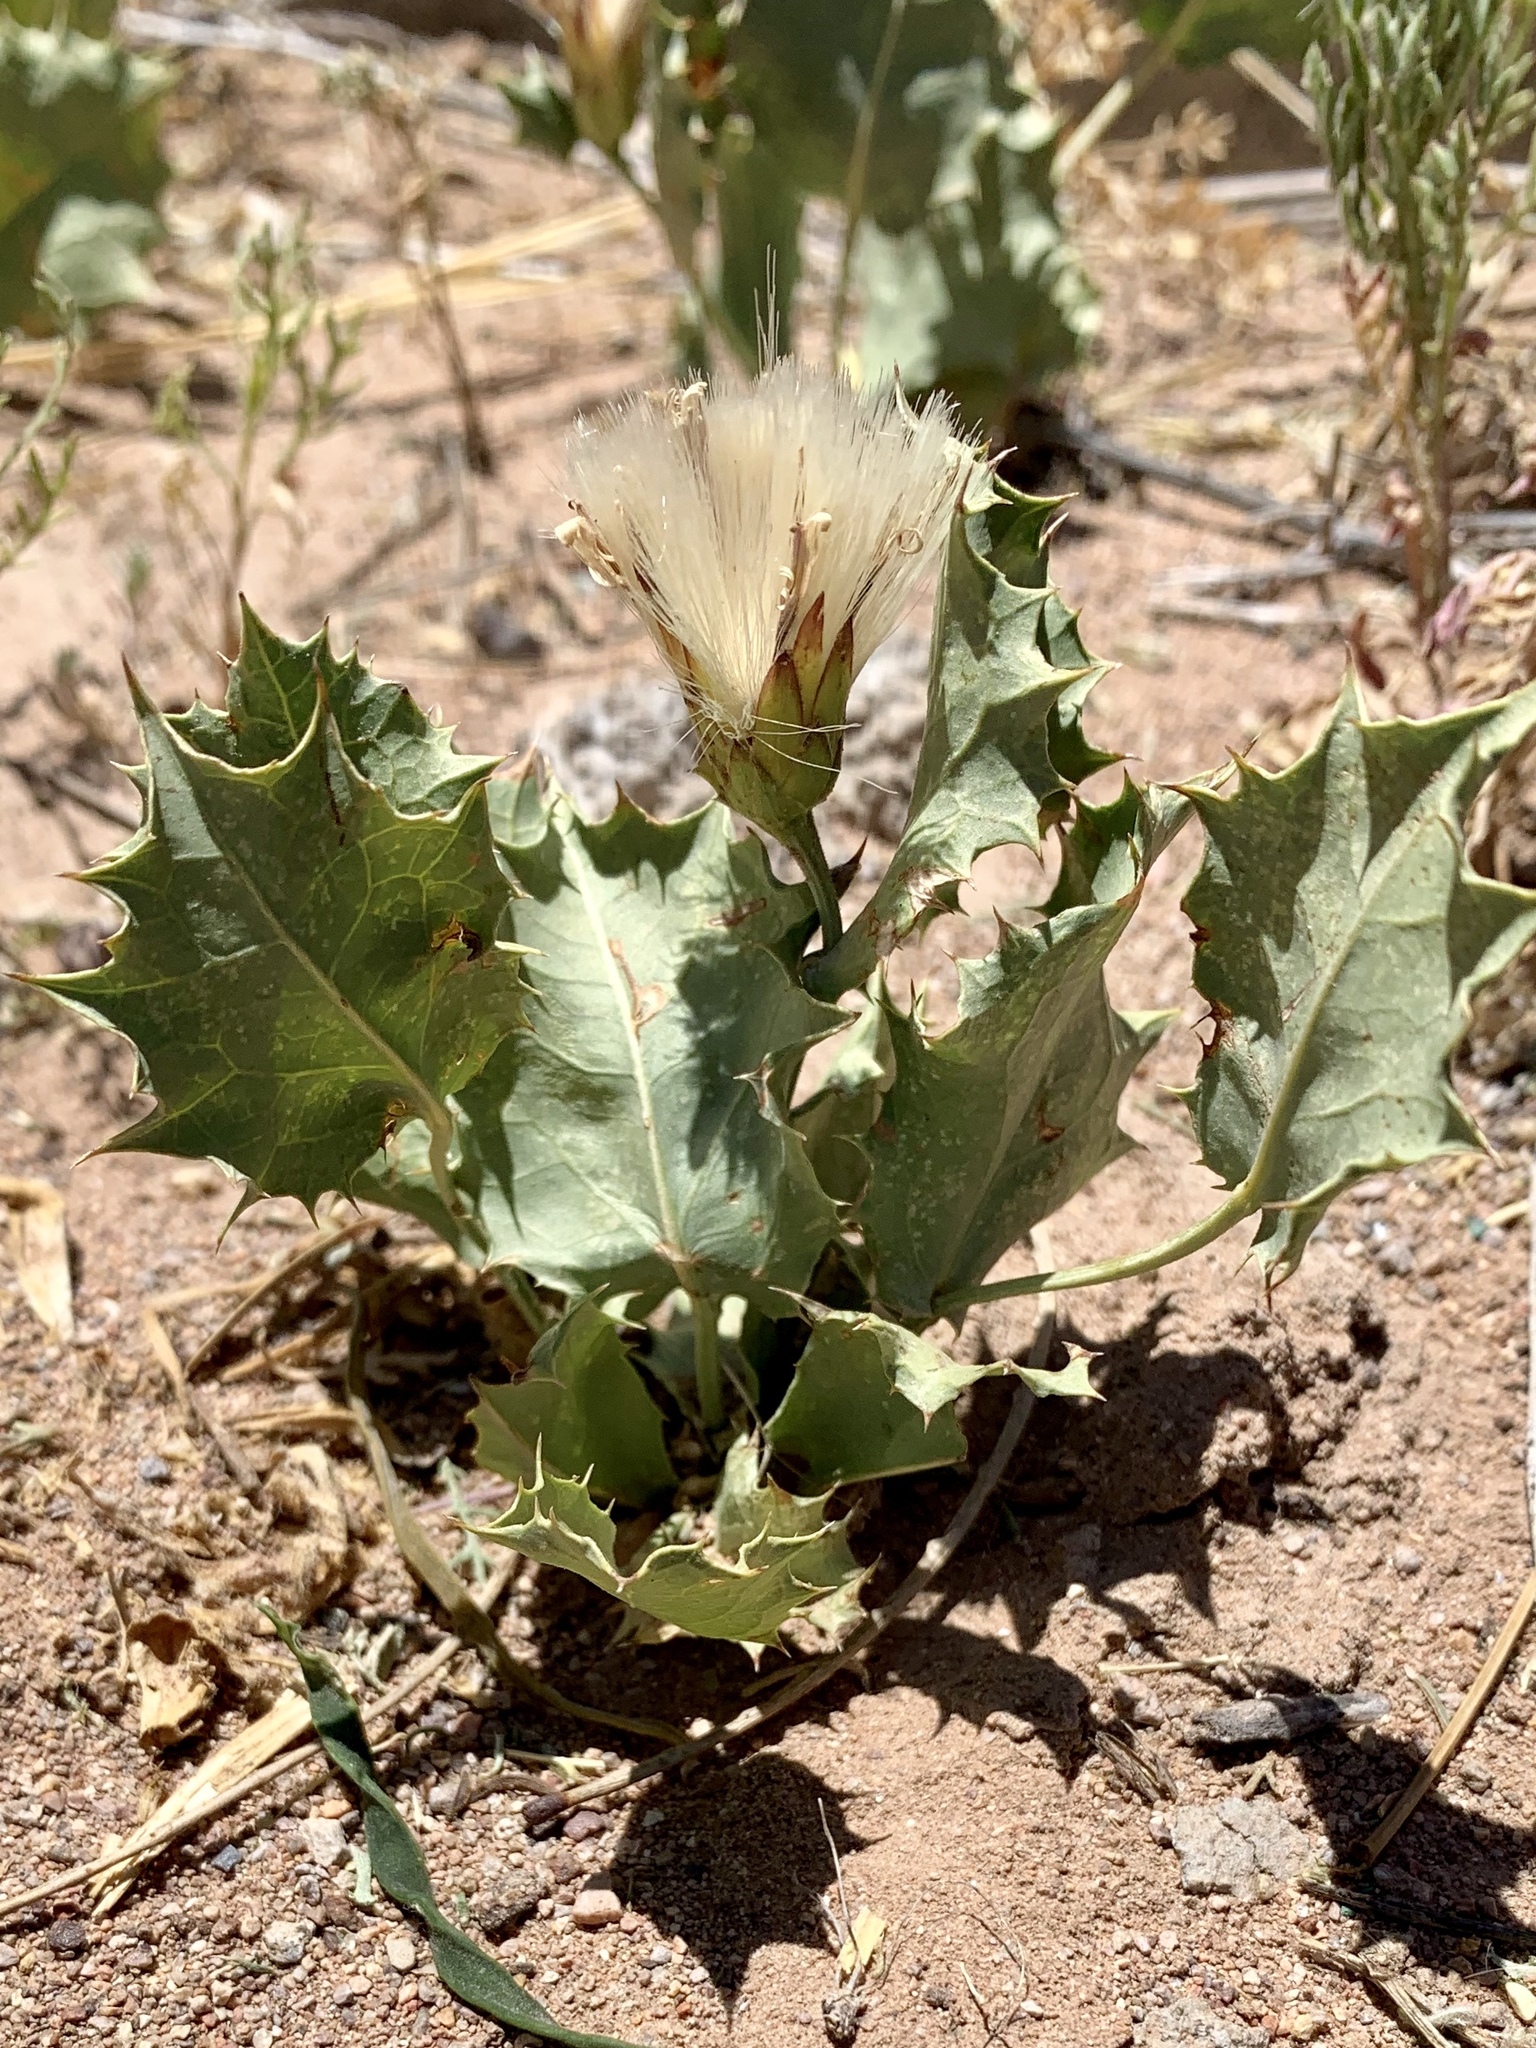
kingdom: Plantae
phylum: Tracheophyta
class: Magnoliopsida
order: Asterales
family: Asteraceae
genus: Acourtia
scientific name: Acourtia nana
